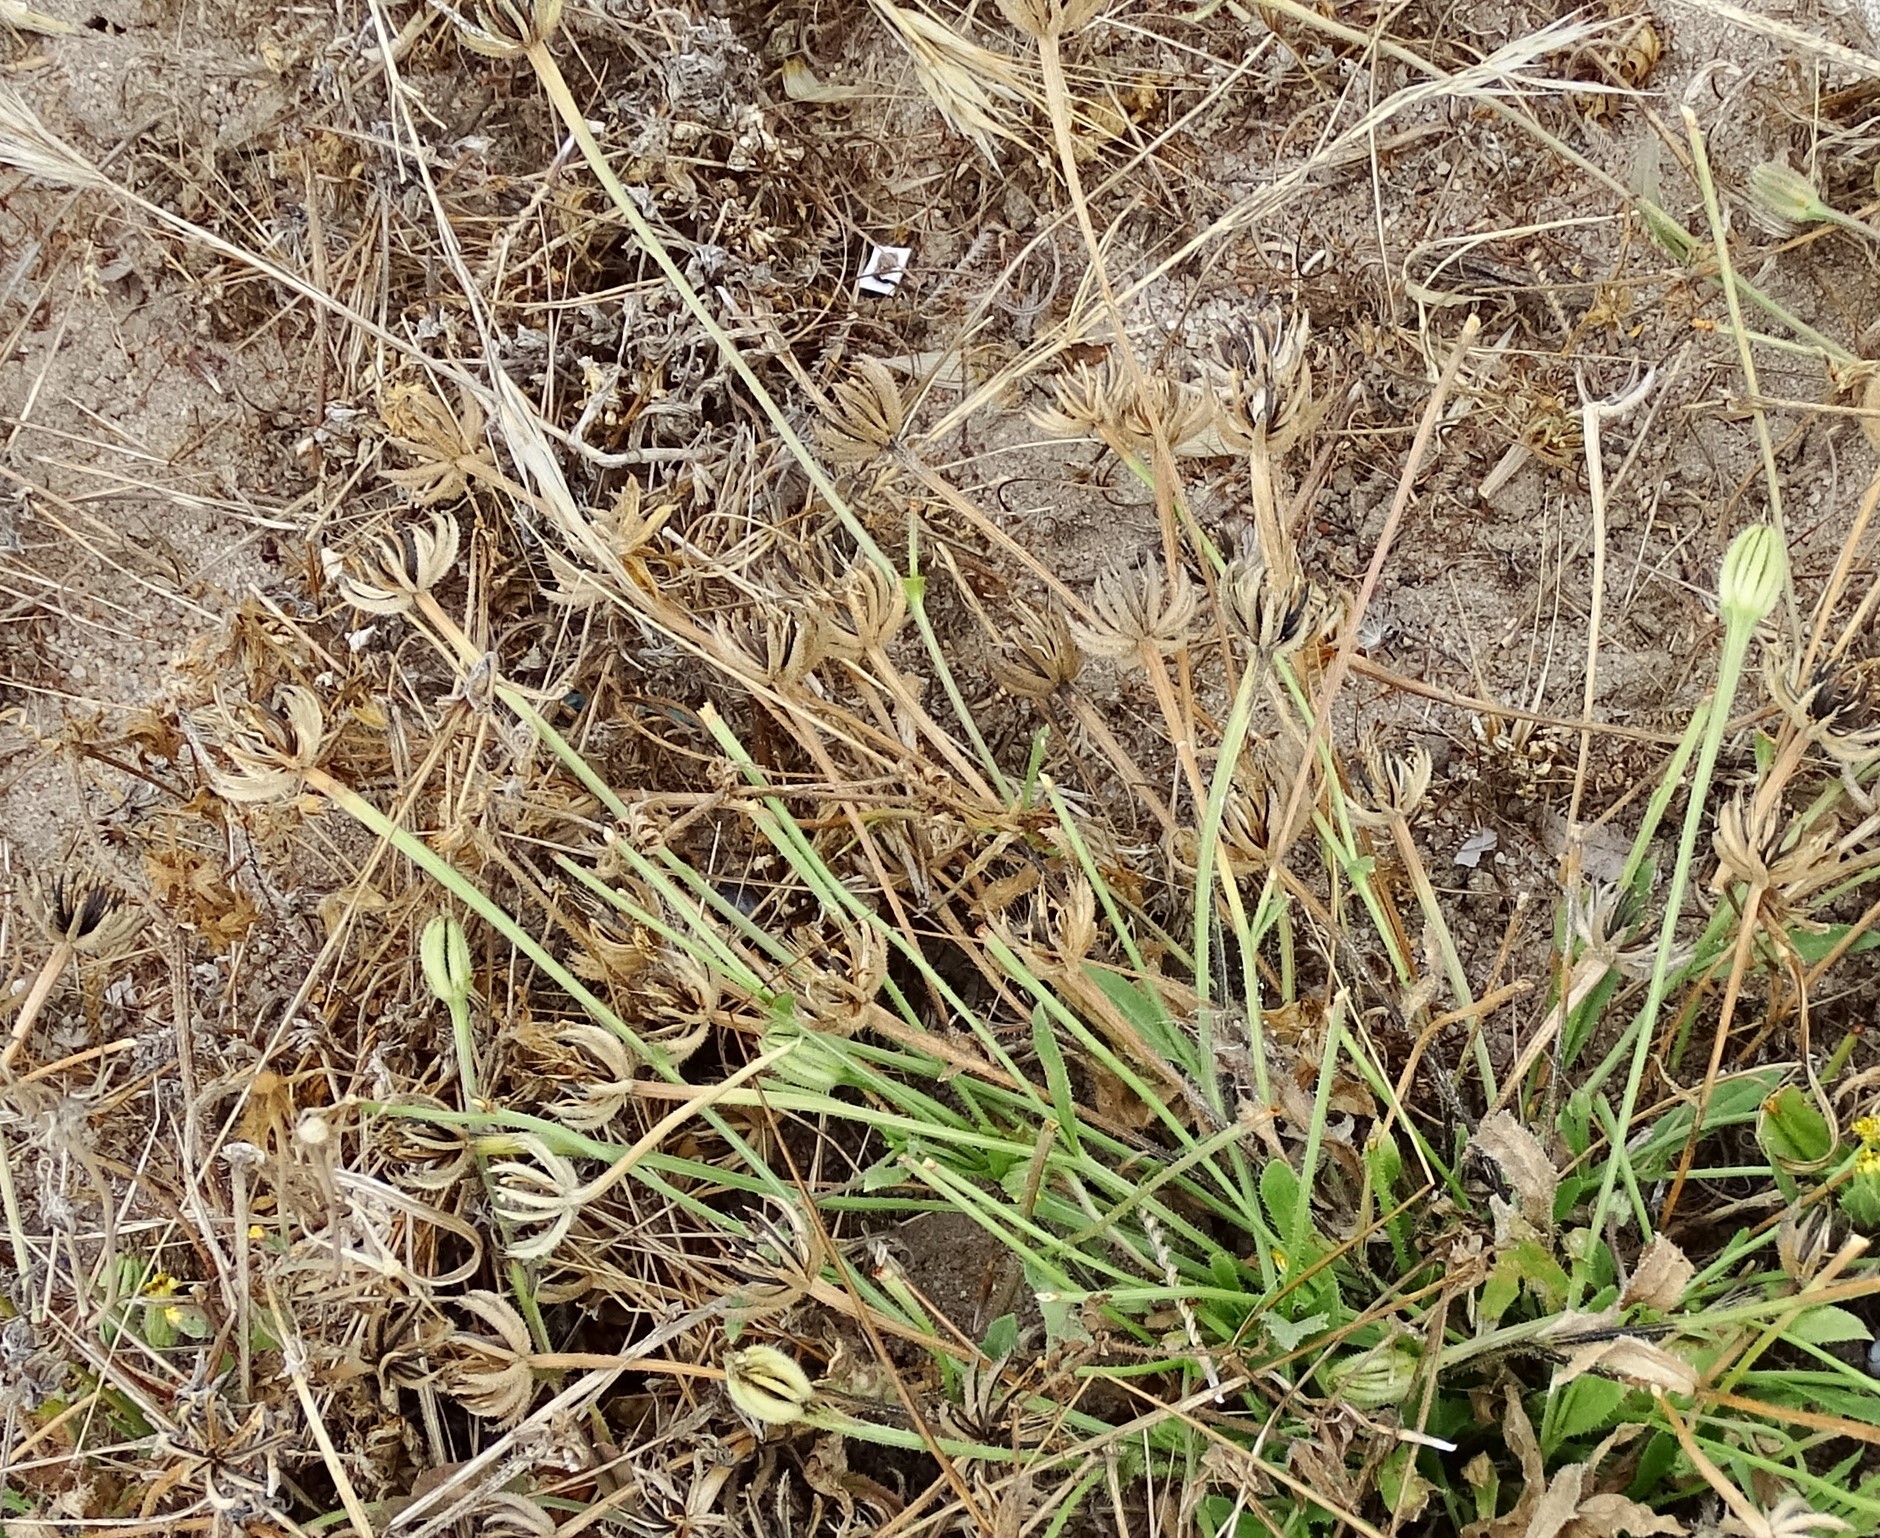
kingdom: Plantae
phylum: Tracheophyta
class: Magnoliopsida
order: Asterales
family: Asteraceae
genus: Hedypnois
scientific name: Hedypnois rhagadioloides
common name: Cretan weed
